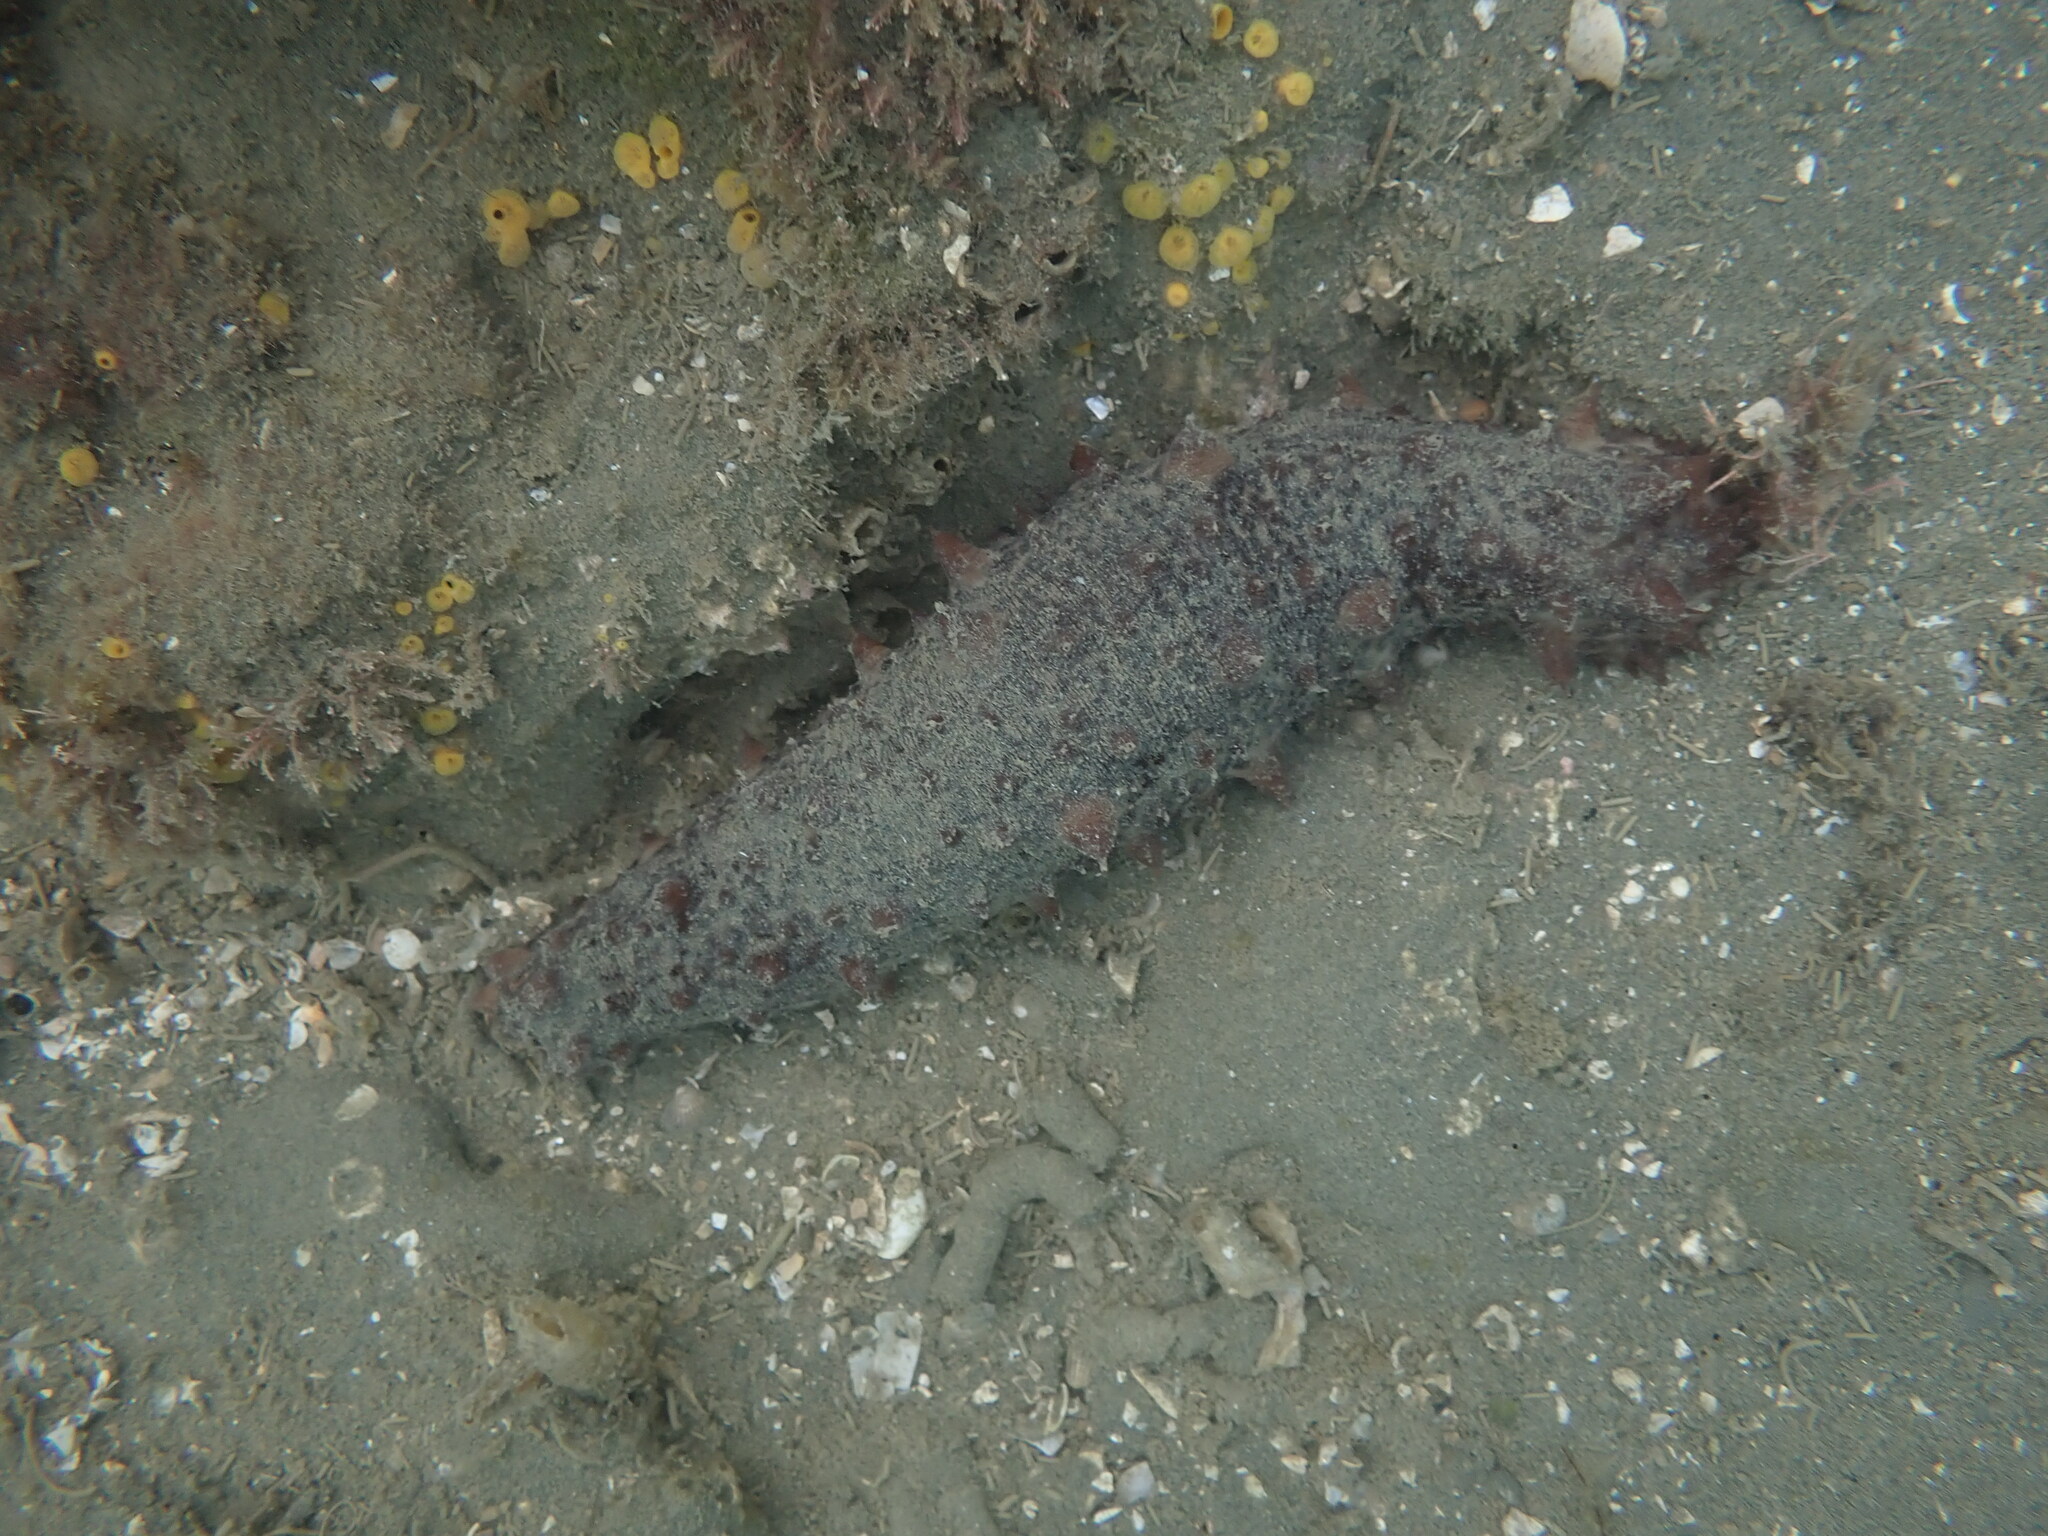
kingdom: Animalia
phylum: Echinodermata
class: Holothuroidea
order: Synallactida
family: Stichopodidae
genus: Australostichopus
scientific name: Australostichopus mollis
